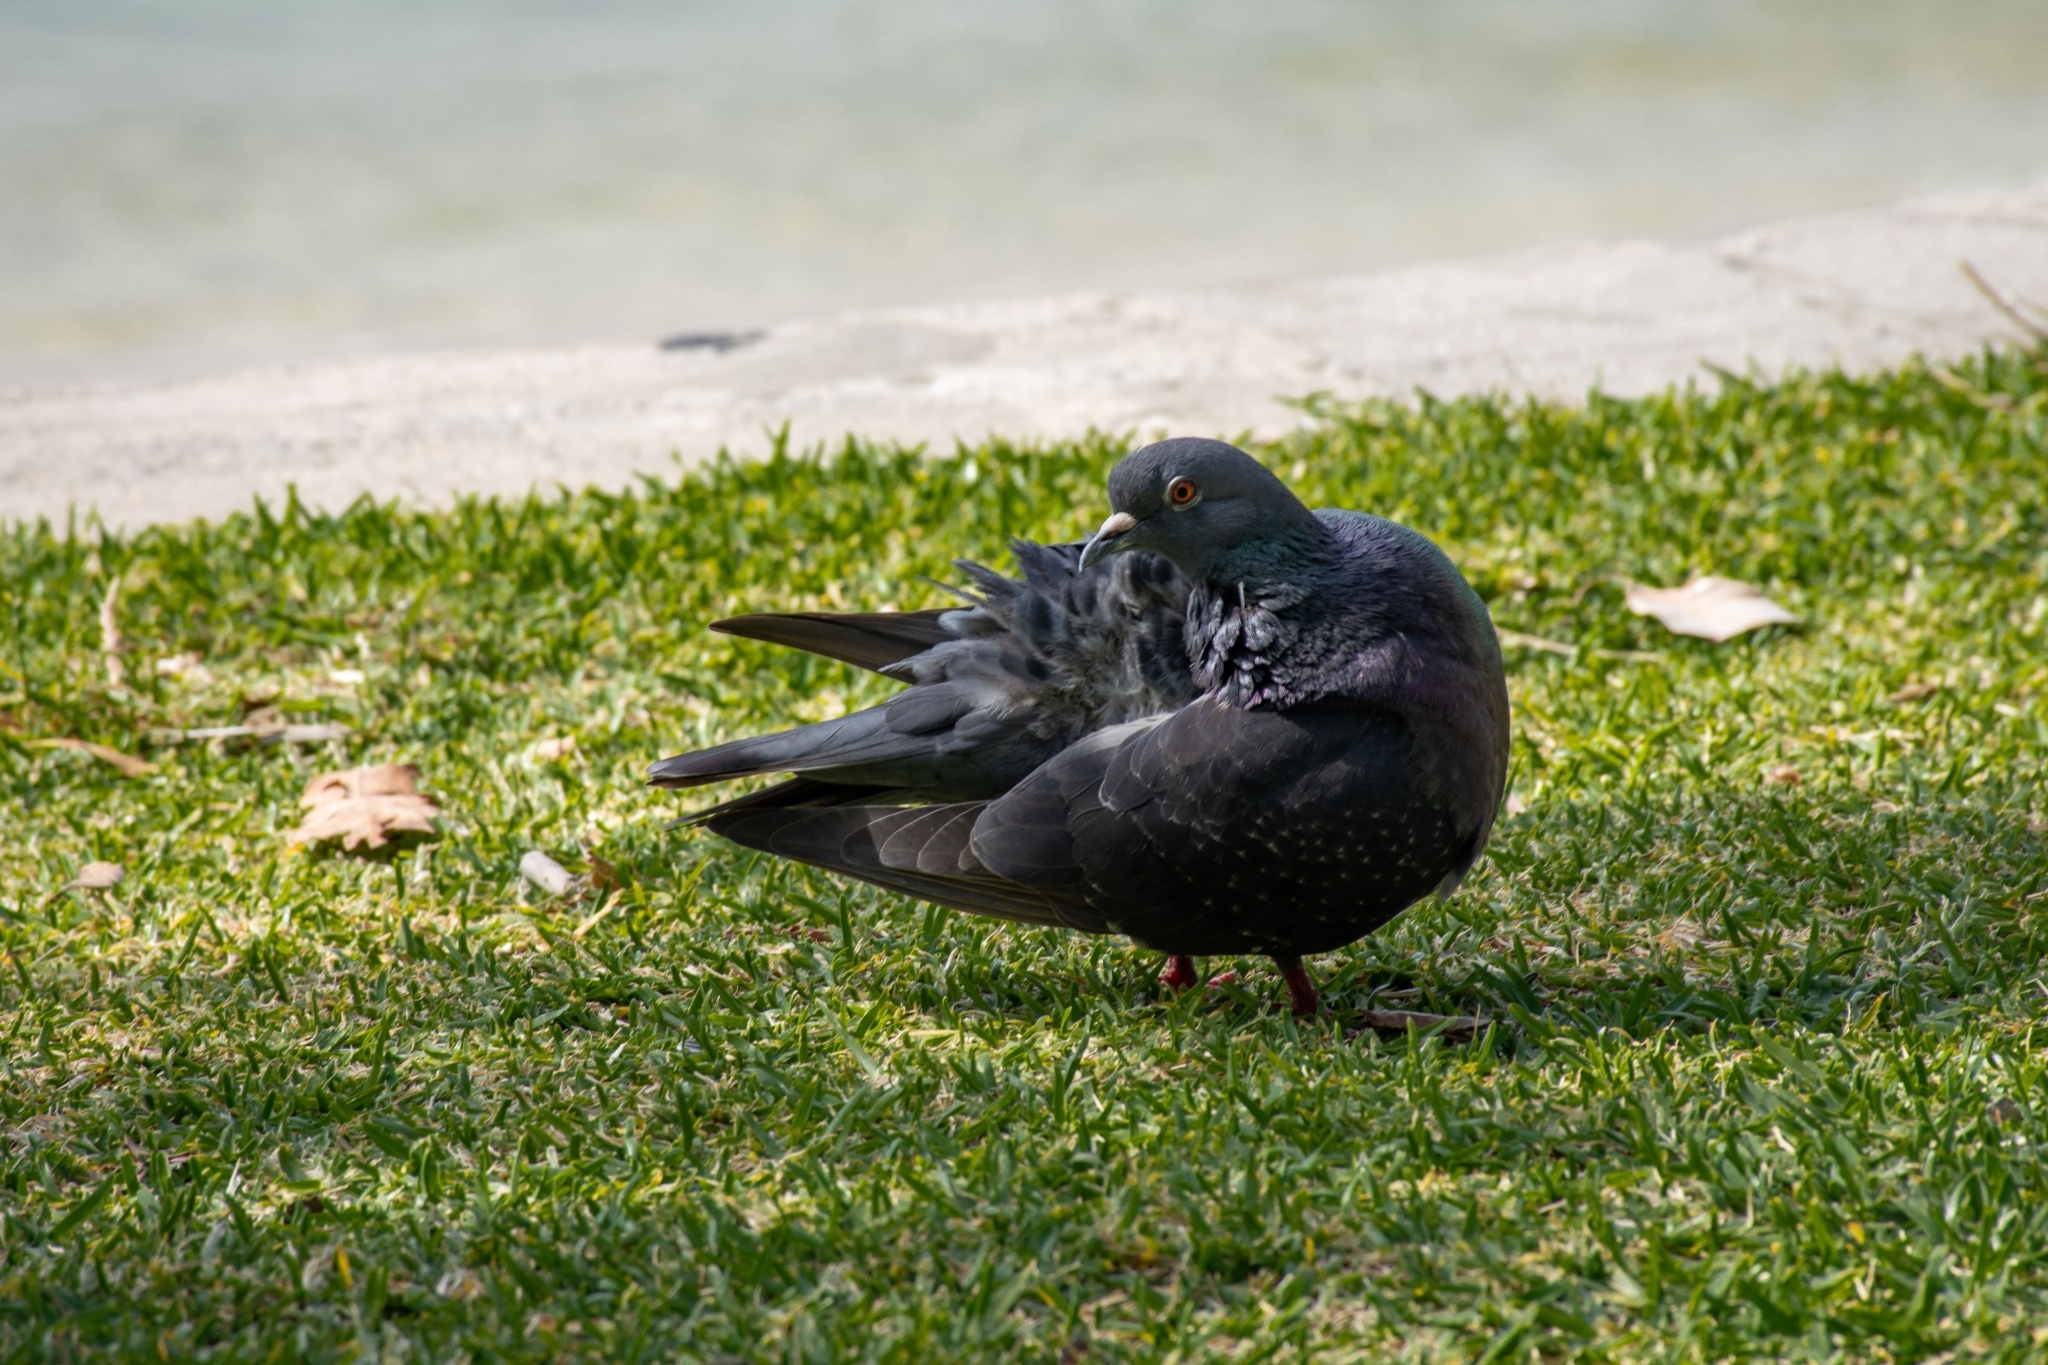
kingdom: Animalia
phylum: Chordata
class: Aves
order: Columbiformes
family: Columbidae
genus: Columba
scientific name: Columba livia
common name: Rock pigeon
